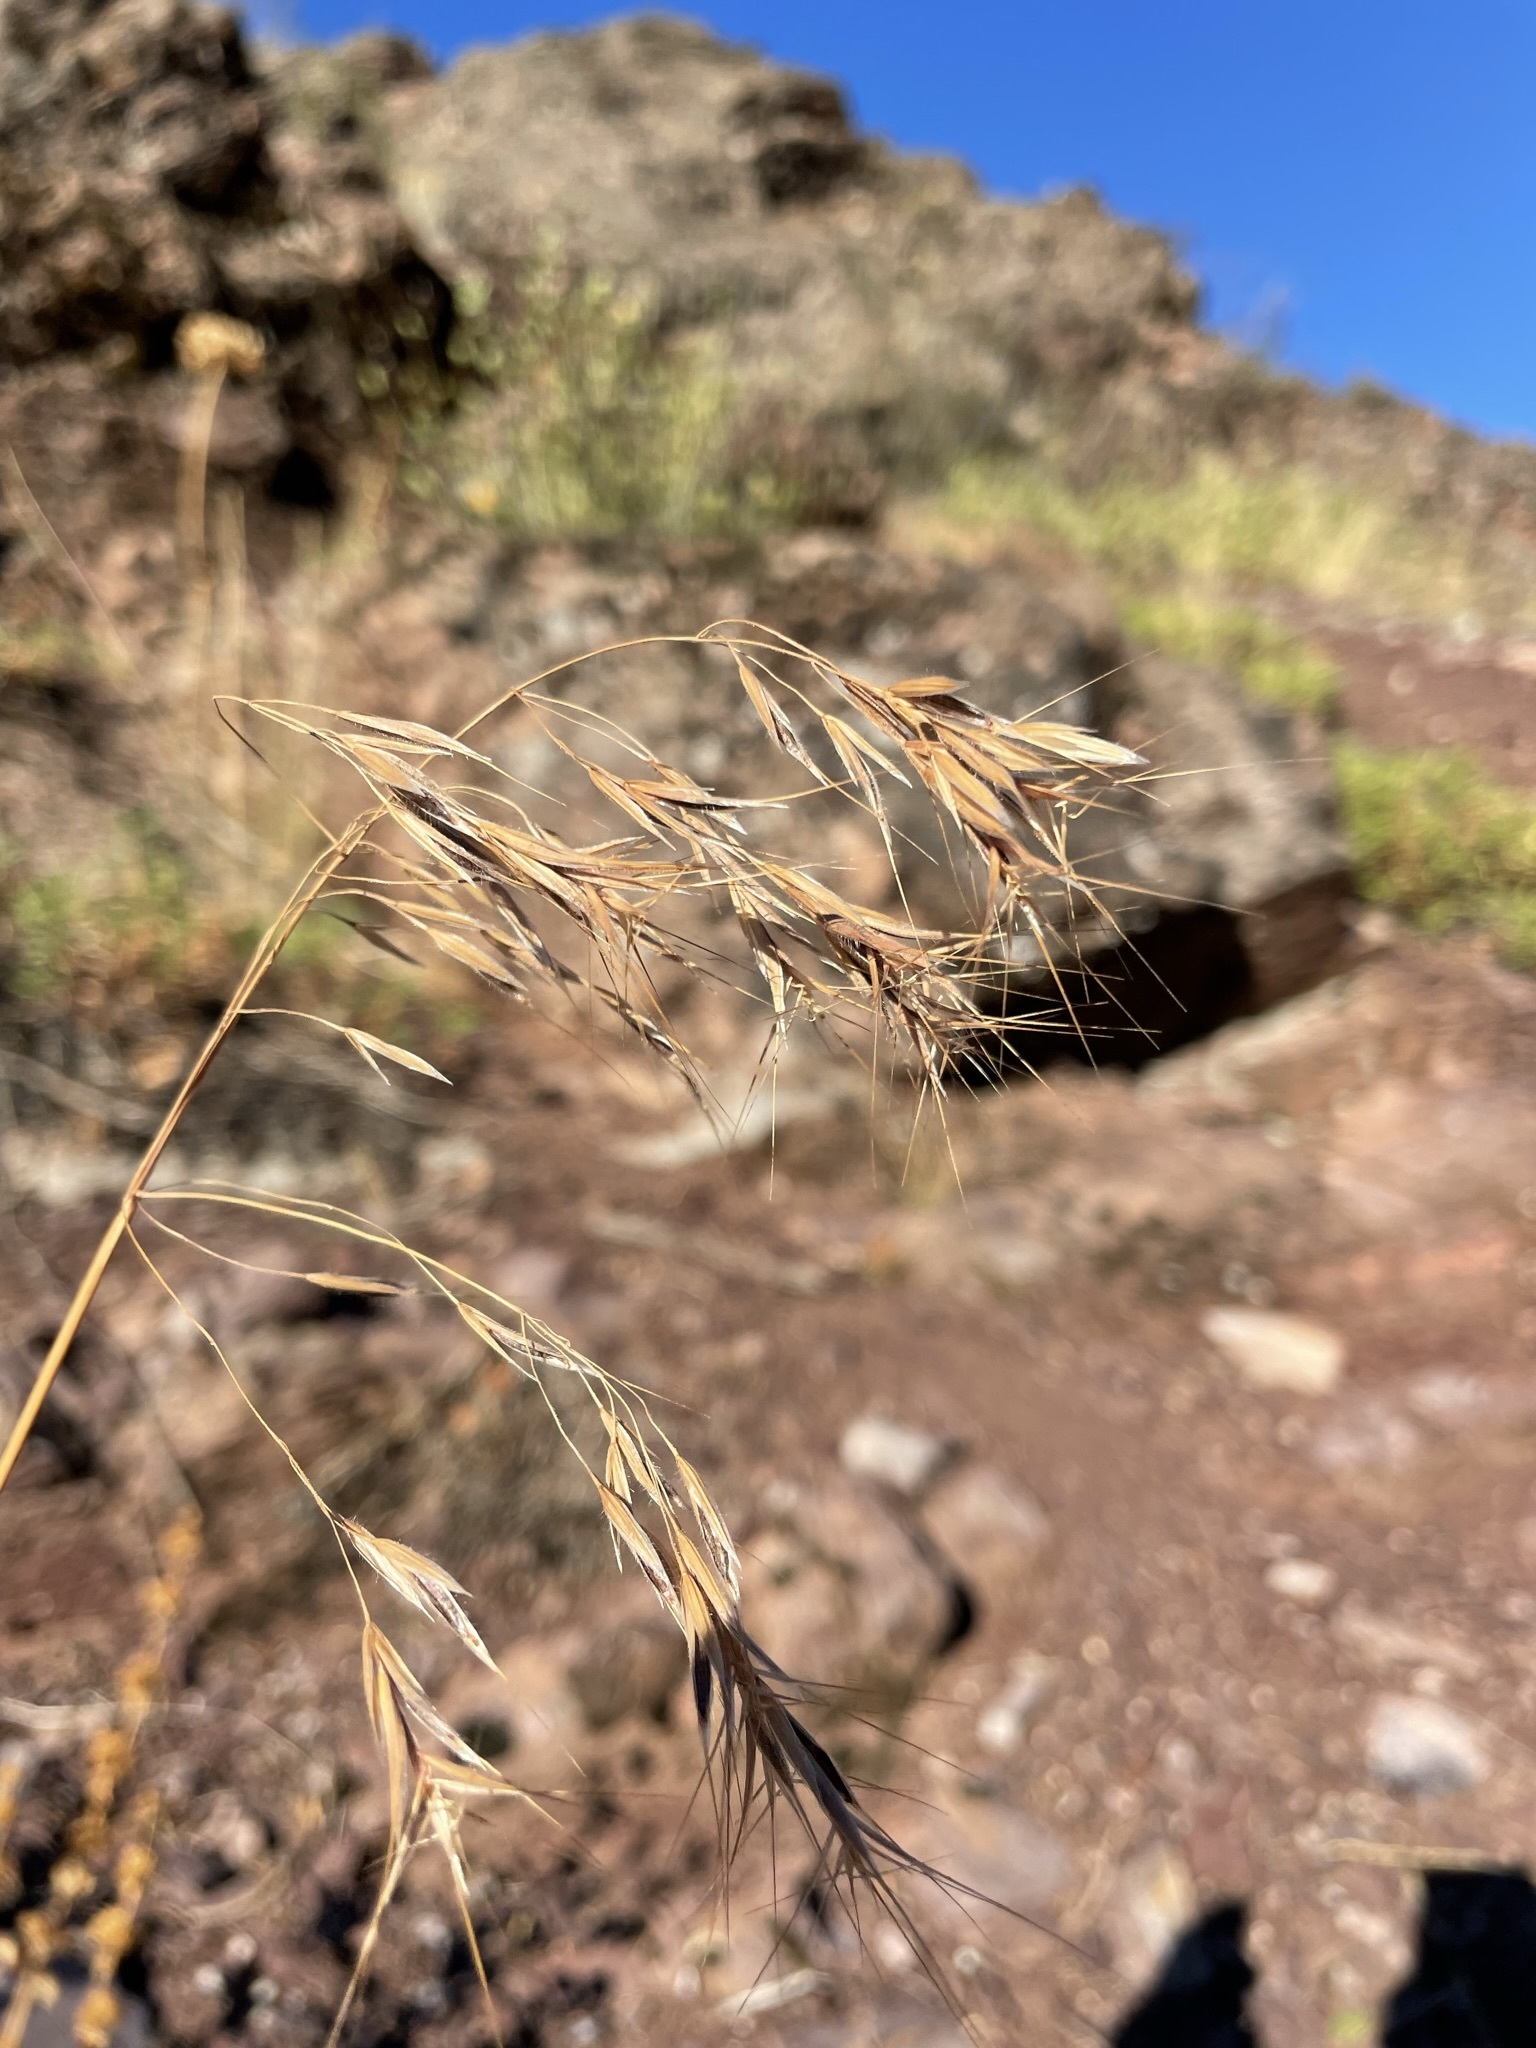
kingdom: Plantae
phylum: Tracheophyta
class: Liliopsida
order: Poales
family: Poaceae
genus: Bromus
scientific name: Bromus tectorum
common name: Cheatgrass
